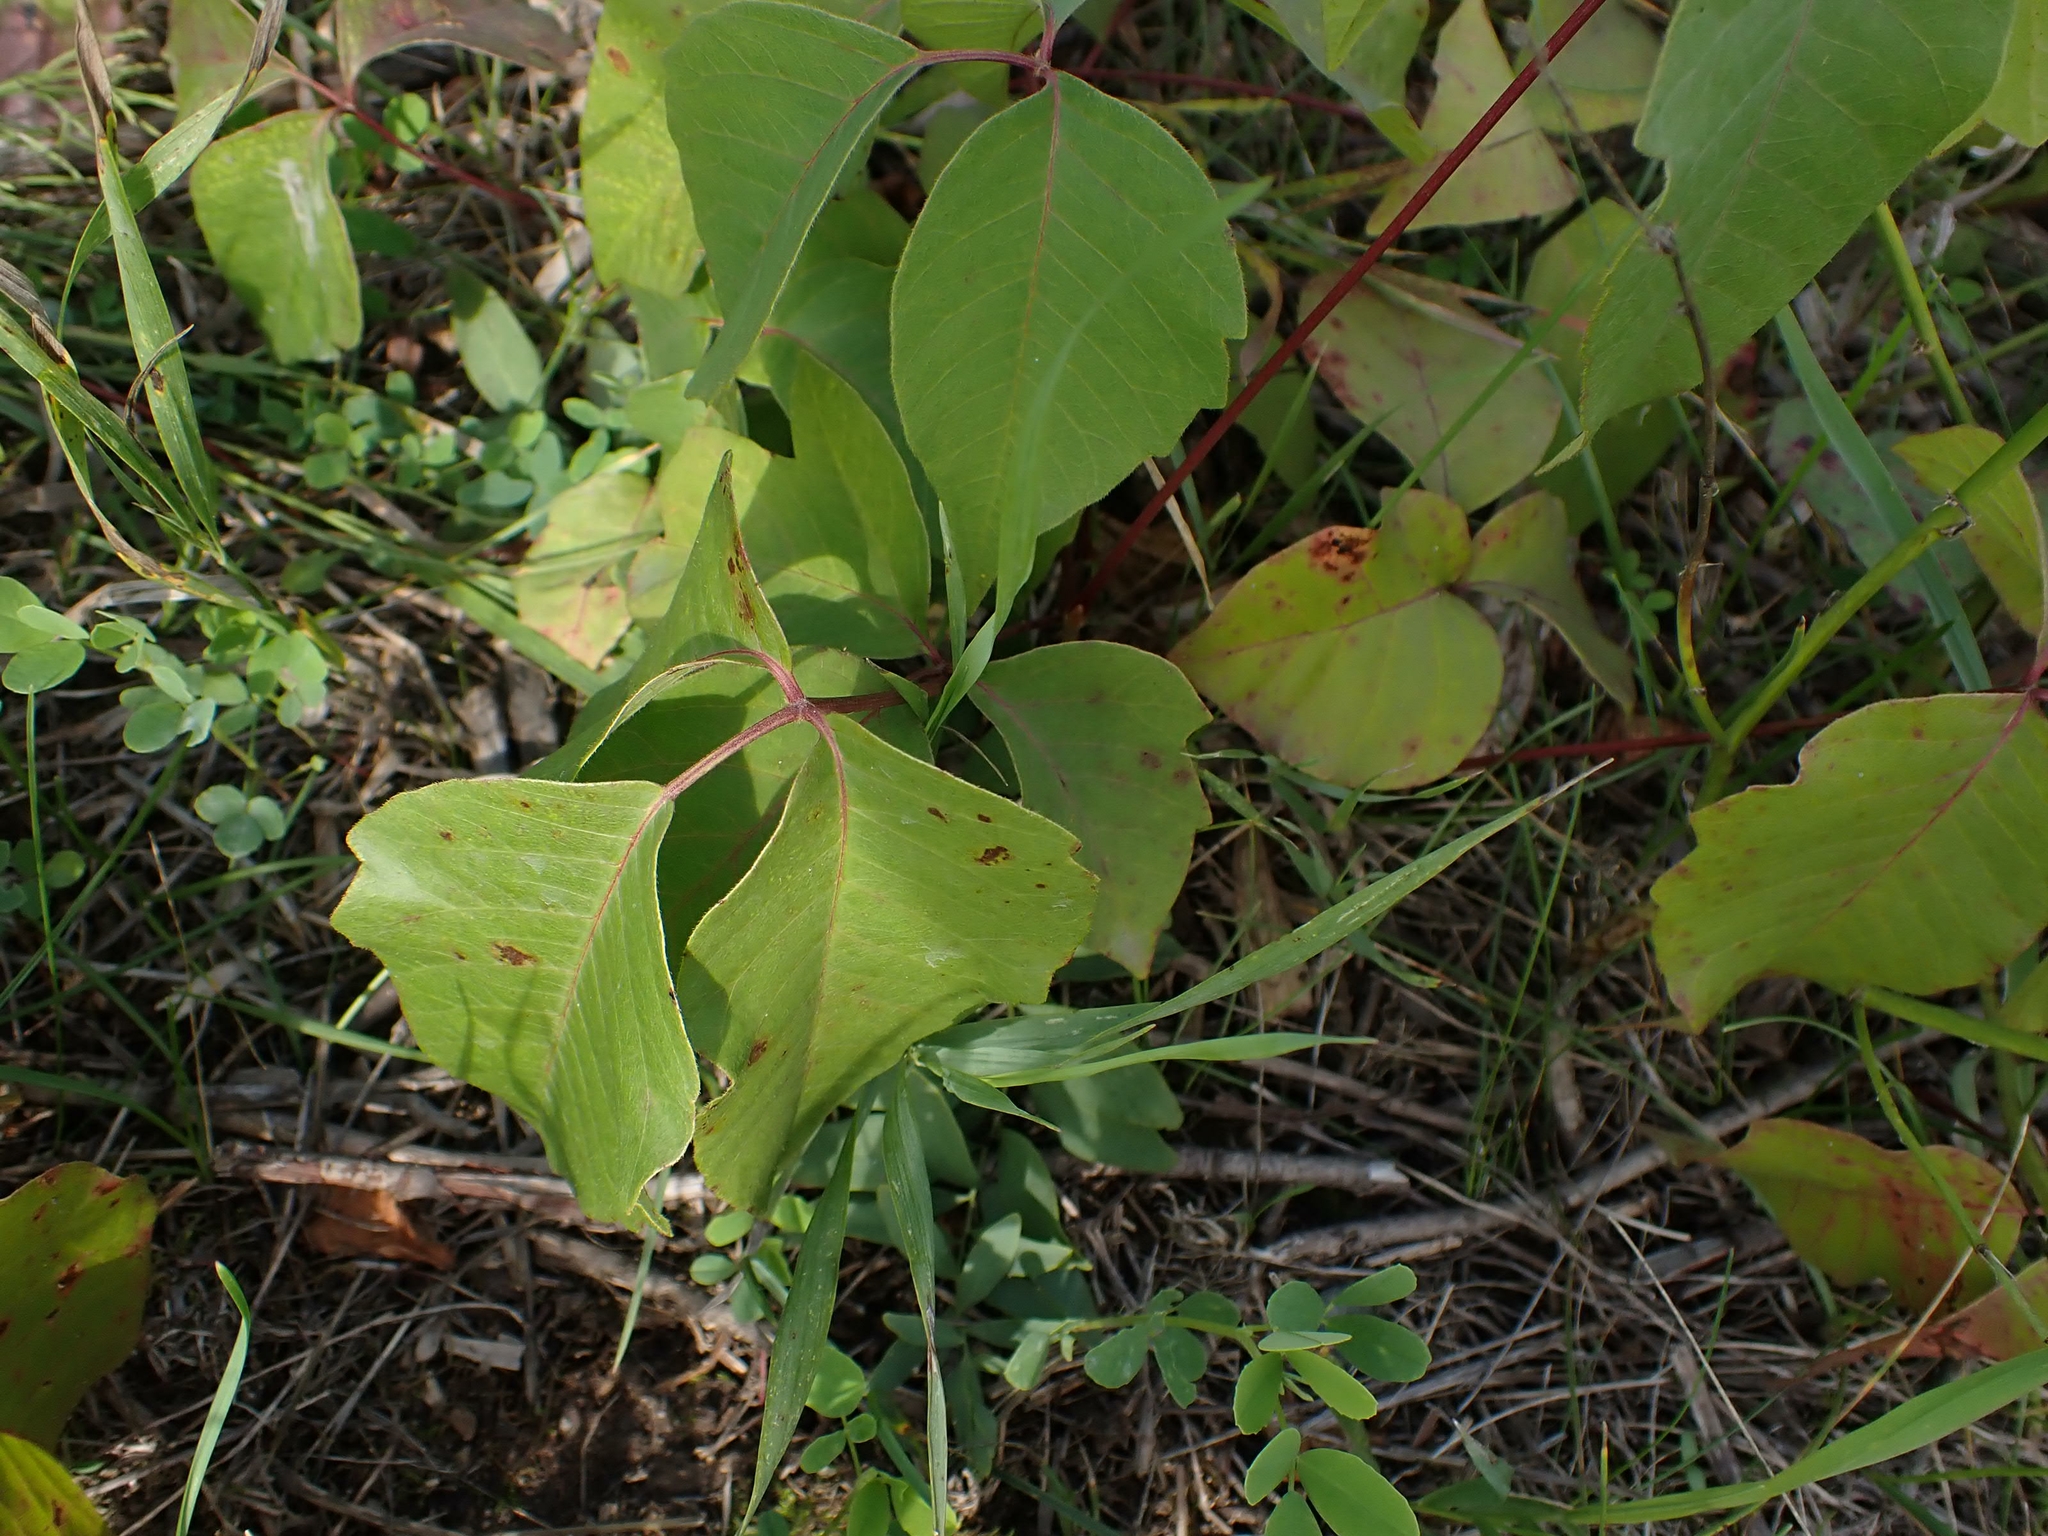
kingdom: Plantae
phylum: Tracheophyta
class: Magnoliopsida
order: Sapindales
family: Anacardiaceae
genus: Toxicodendron
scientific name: Toxicodendron rydbergii
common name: Rydberg's poison-ivy
